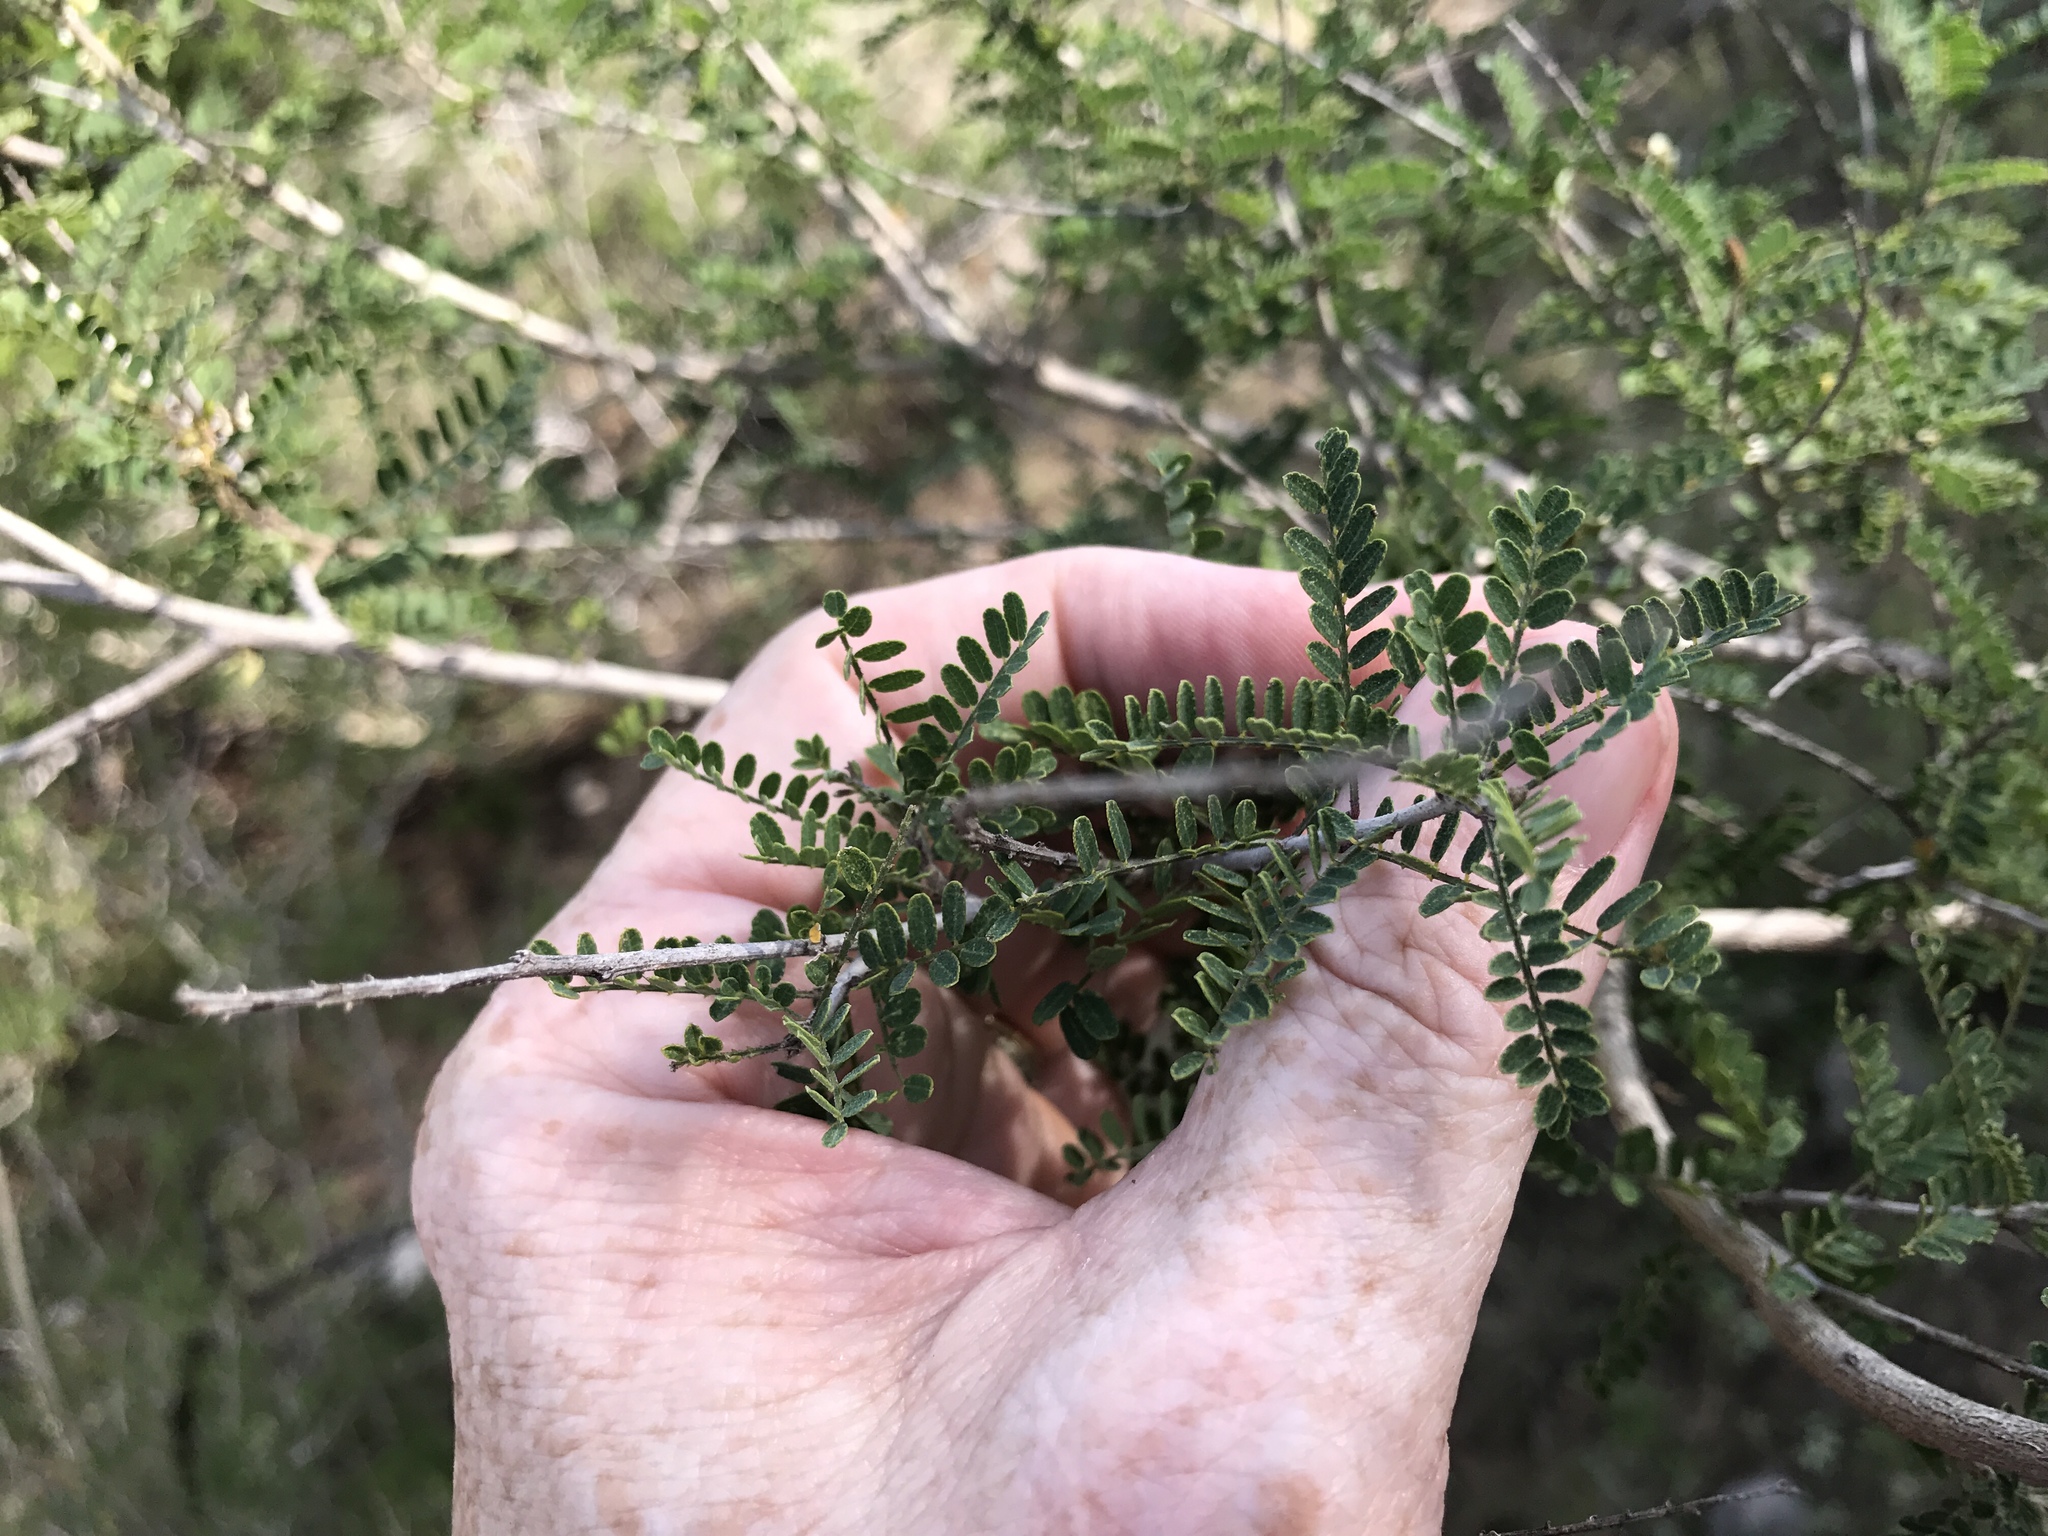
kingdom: Plantae
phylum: Tracheophyta
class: Magnoliopsida
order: Fabales
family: Fabaceae
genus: Eysenhardtia
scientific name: Eysenhardtia texana
